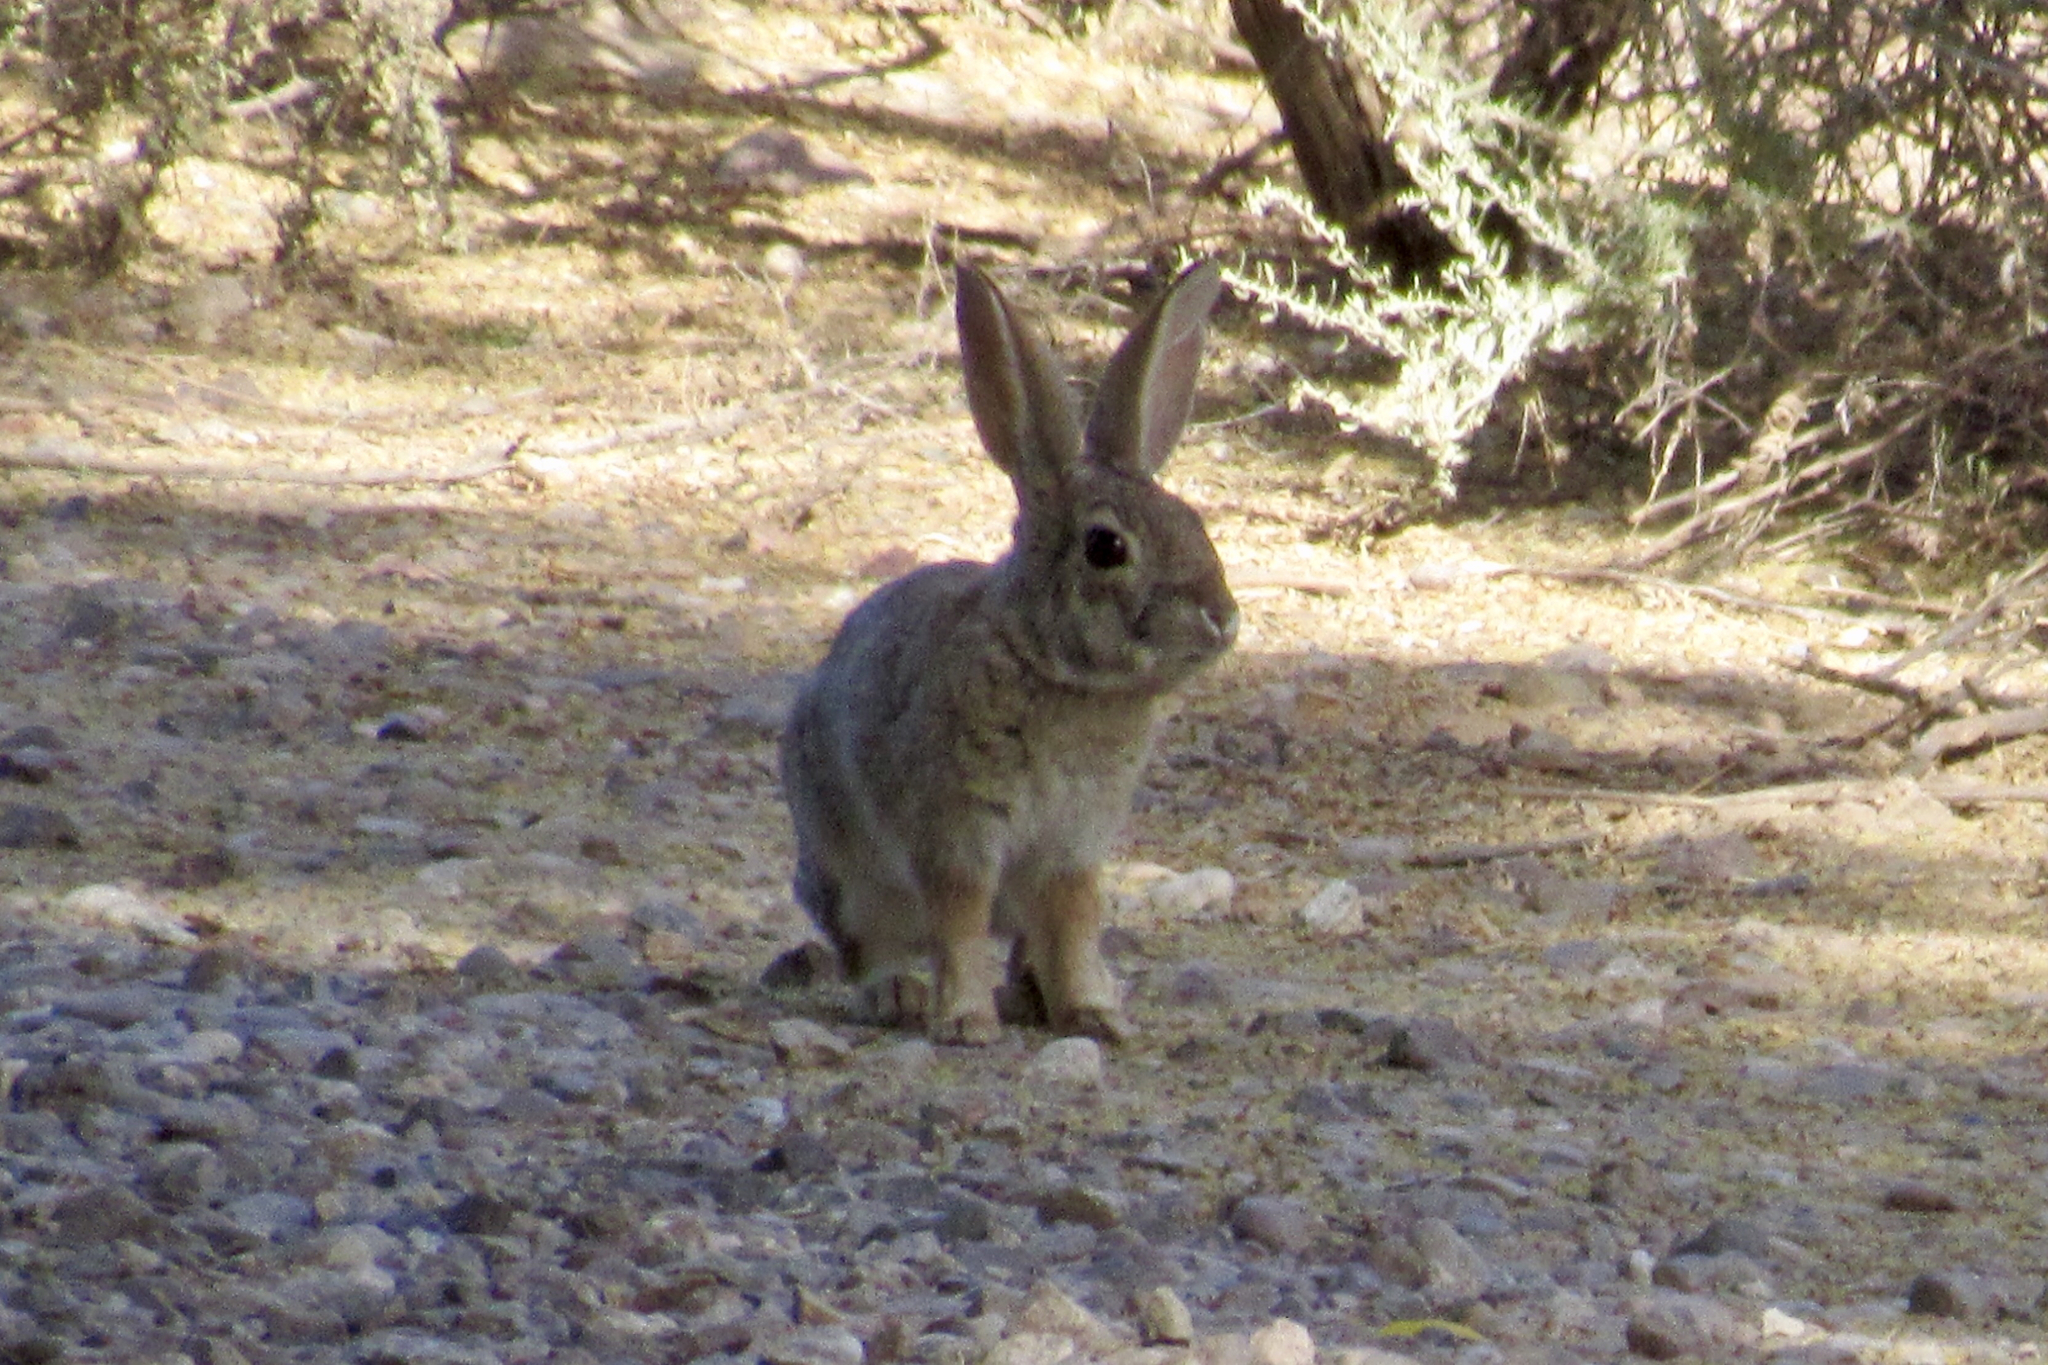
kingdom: Animalia
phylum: Chordata
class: Mammalia
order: Lagomorpha
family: Leporidae
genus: Sylvilagus
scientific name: Sylvilagus audubonii
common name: Desert cottontail
